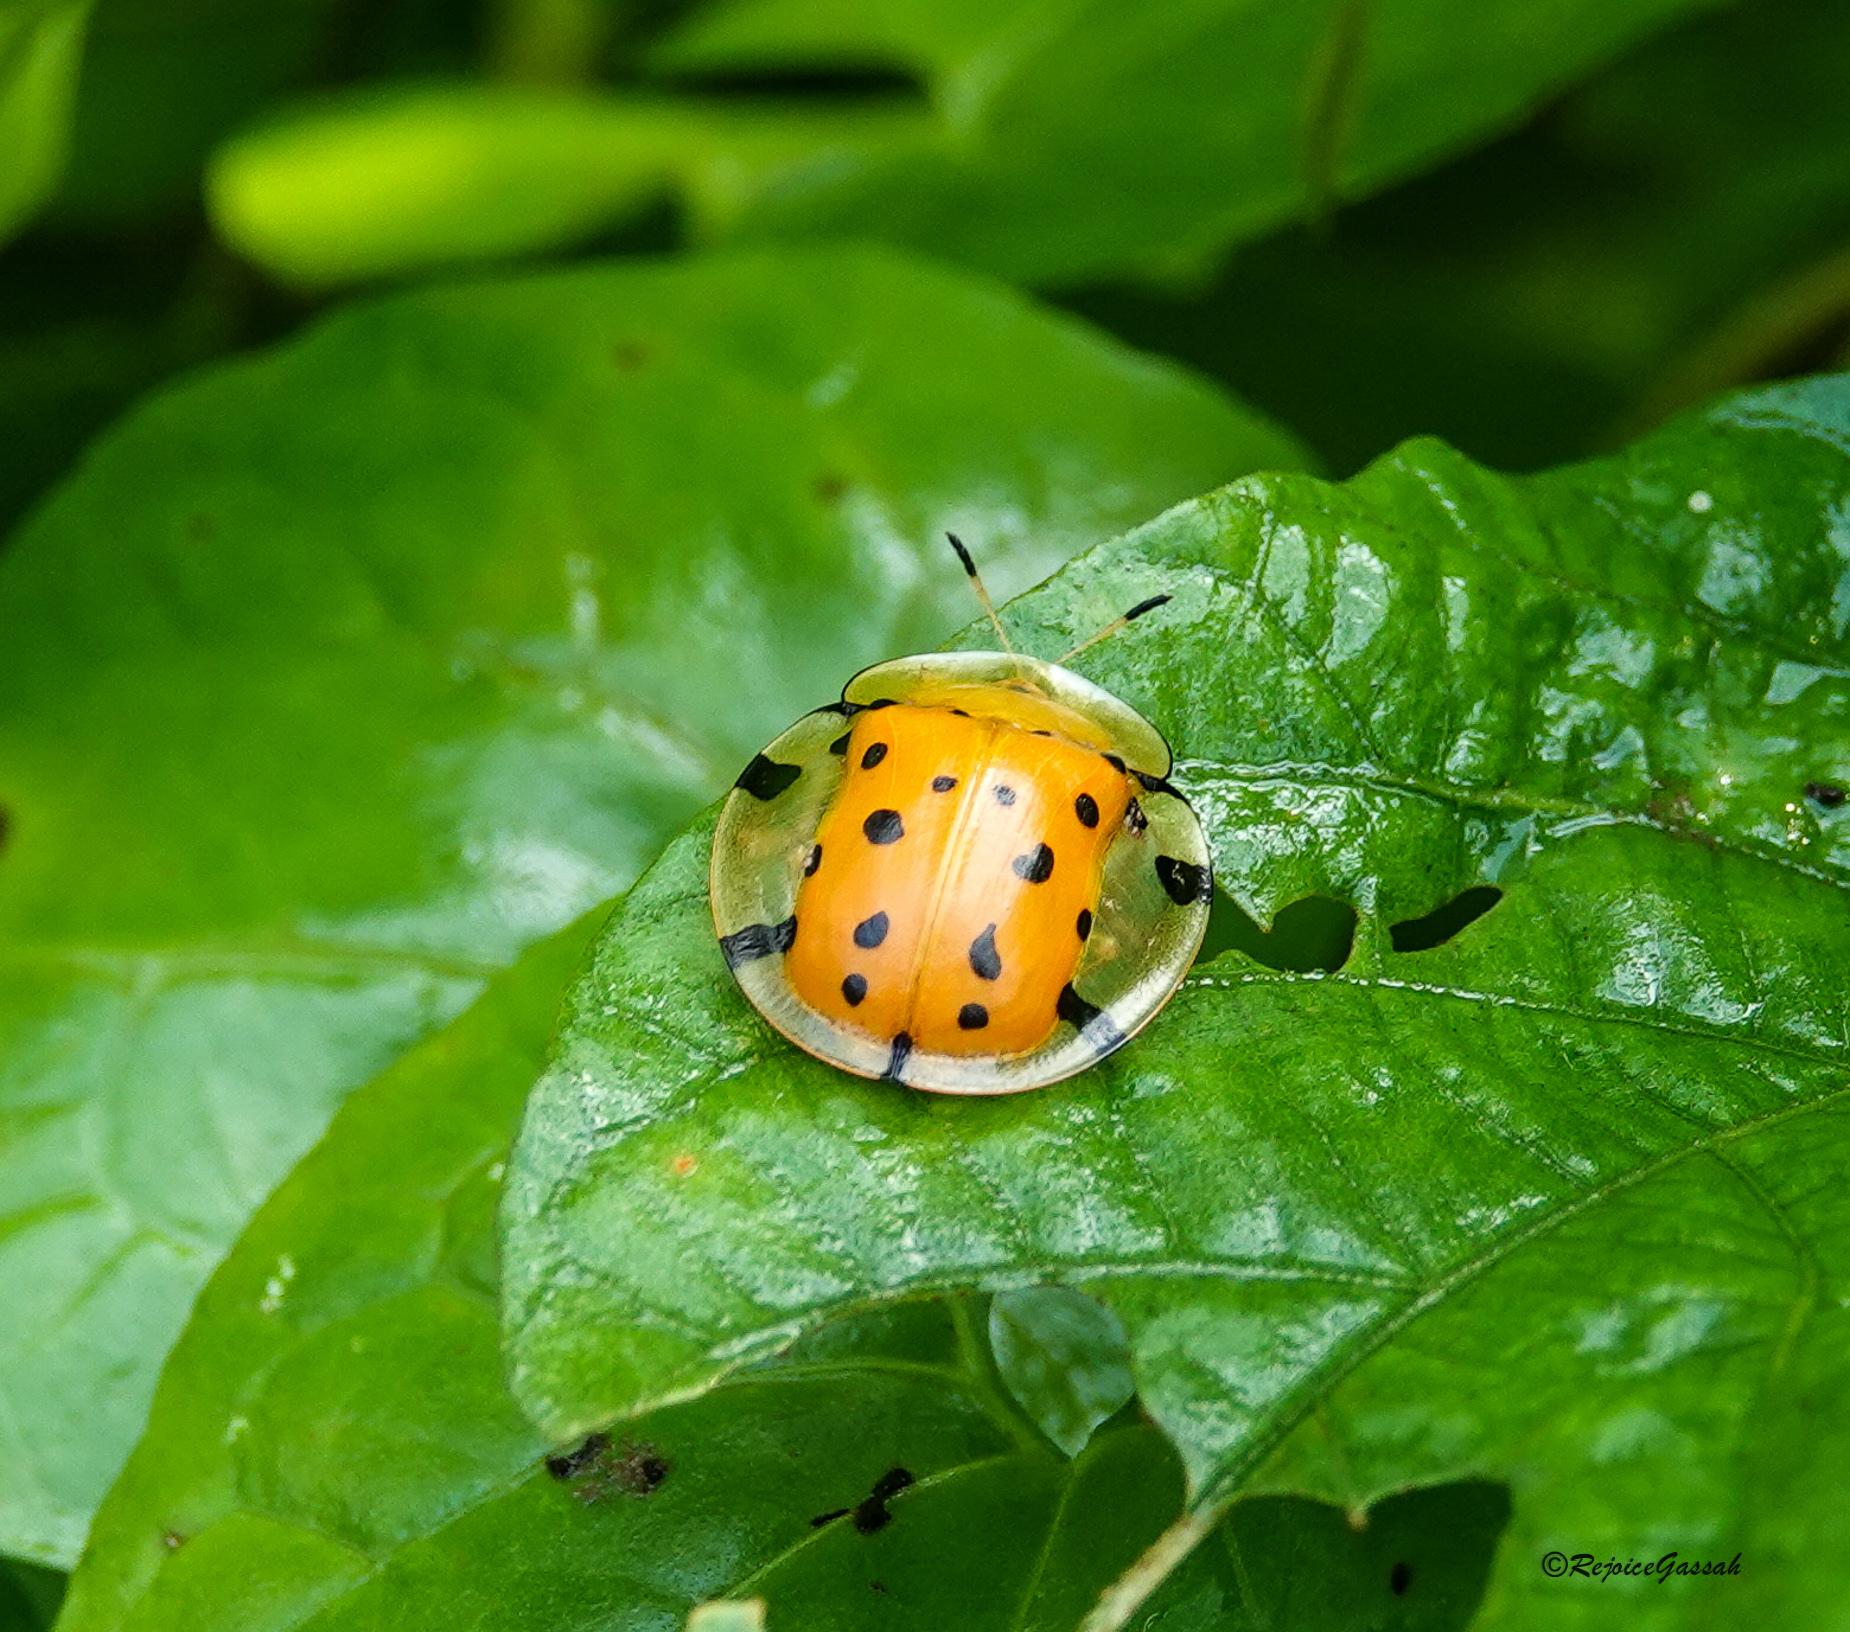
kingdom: Animalia
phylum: Arthropoda
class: Insecta
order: Coleoptera
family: Chrysomelidae
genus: Aspidimorpha
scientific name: Aspidimorpha miliaris
